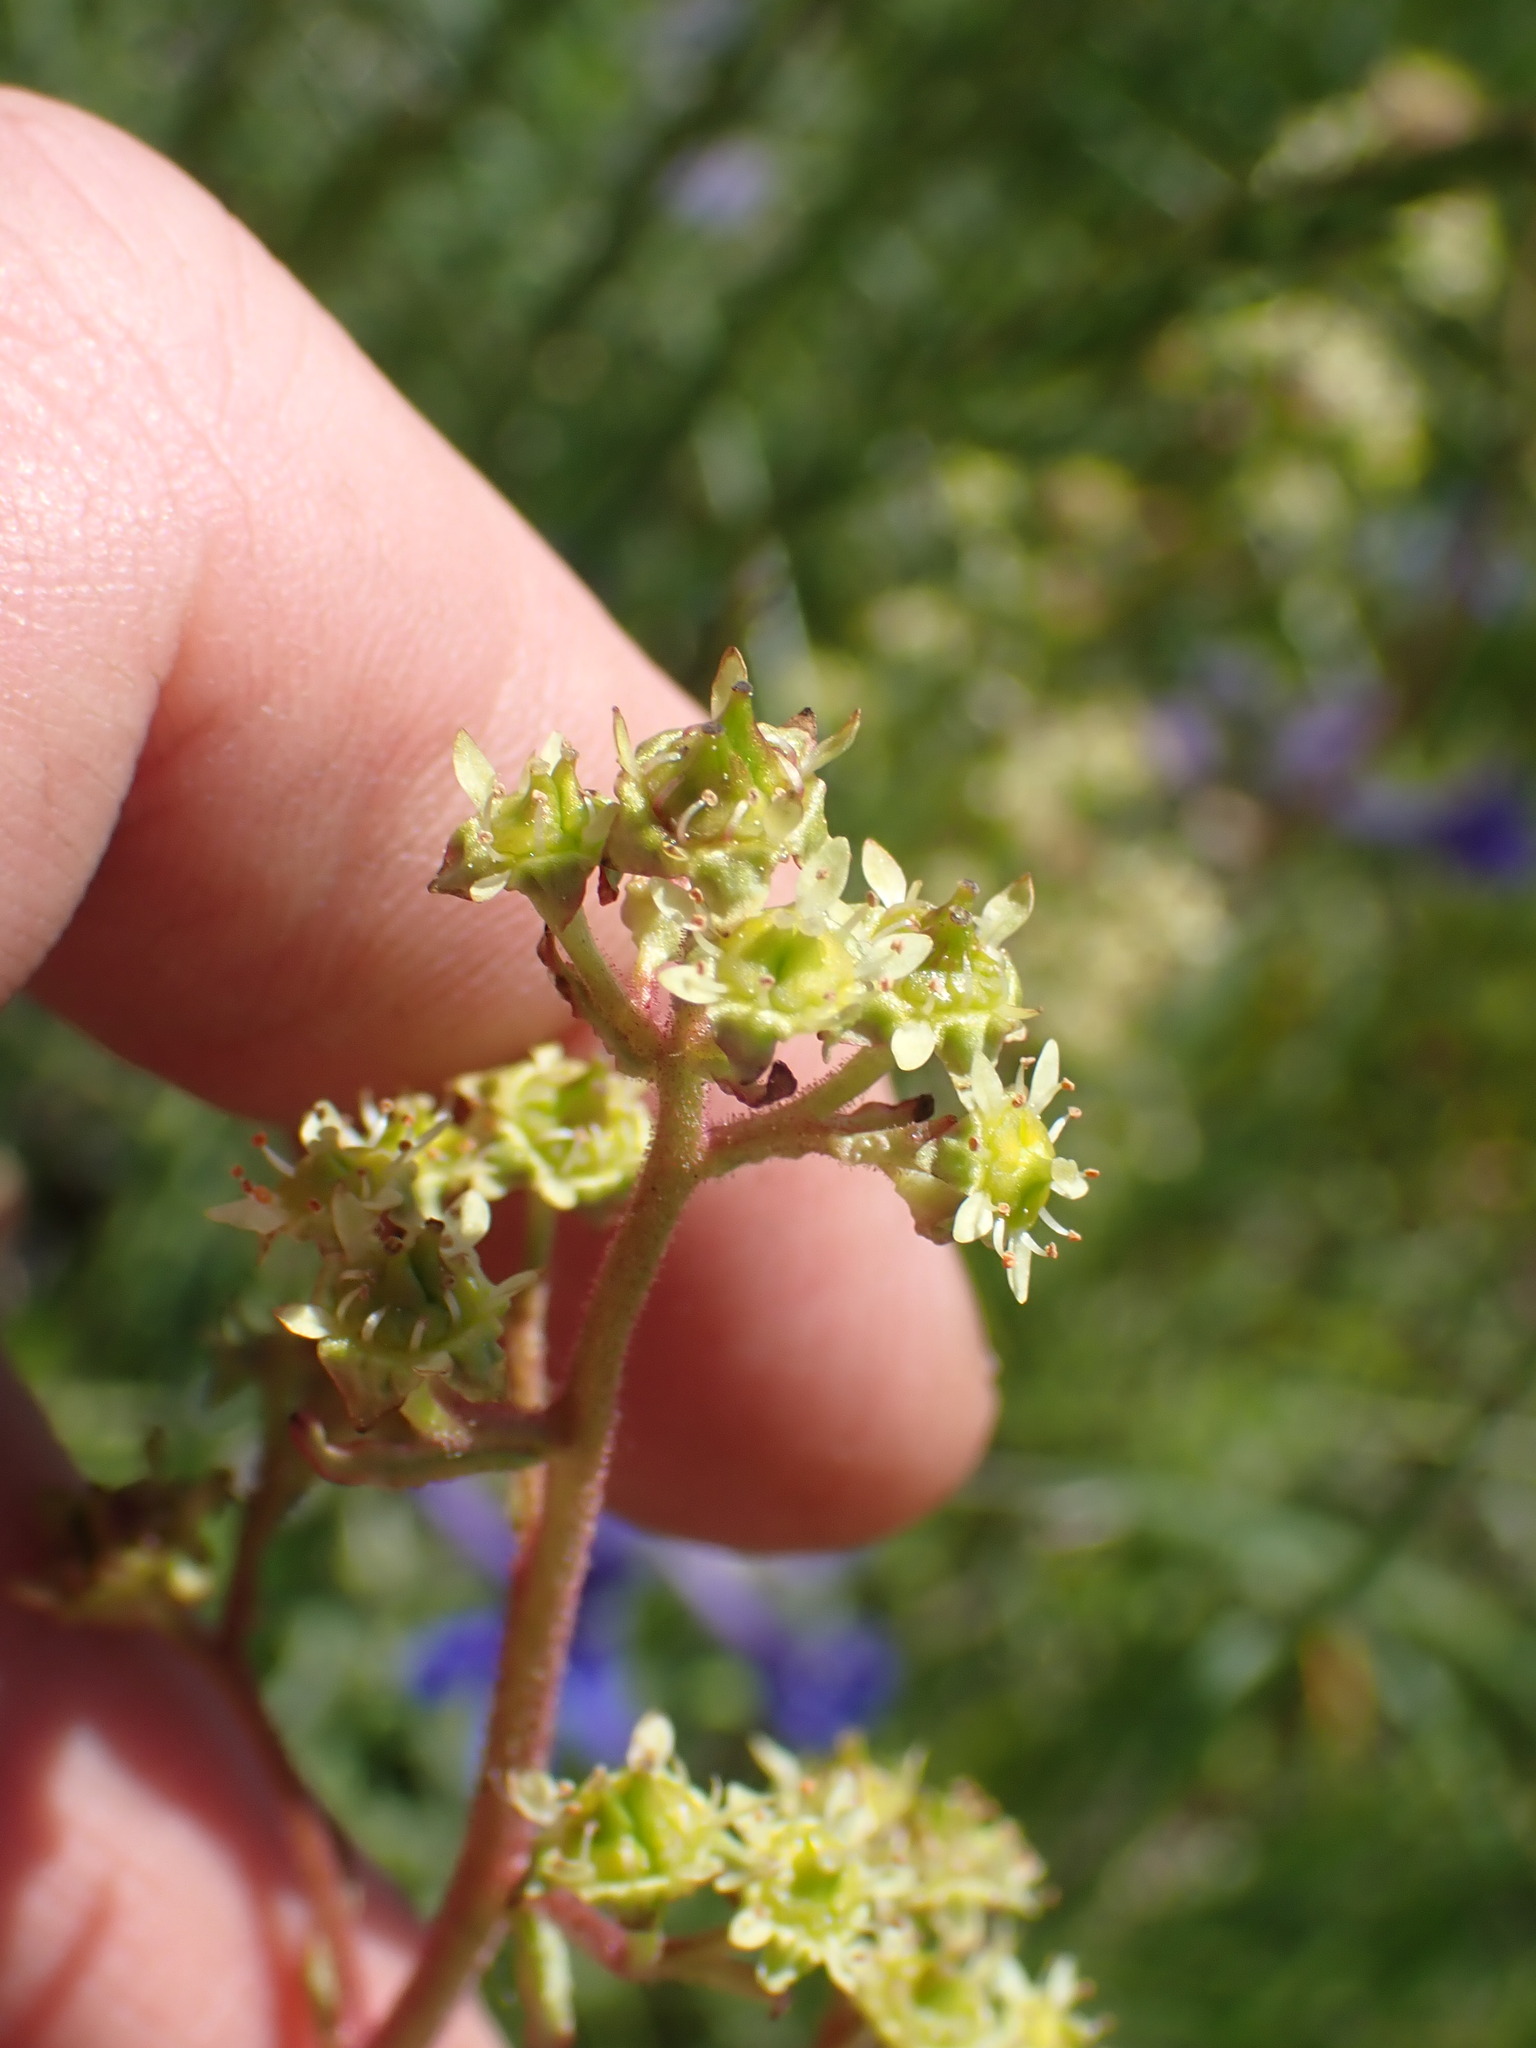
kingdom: Plantae
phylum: Tracheophyta
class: Magnoliopsida
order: Saxifragales
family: Saxifragaceae
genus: Micranthes
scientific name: Micranthes nidifica
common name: Peak saxifrage
